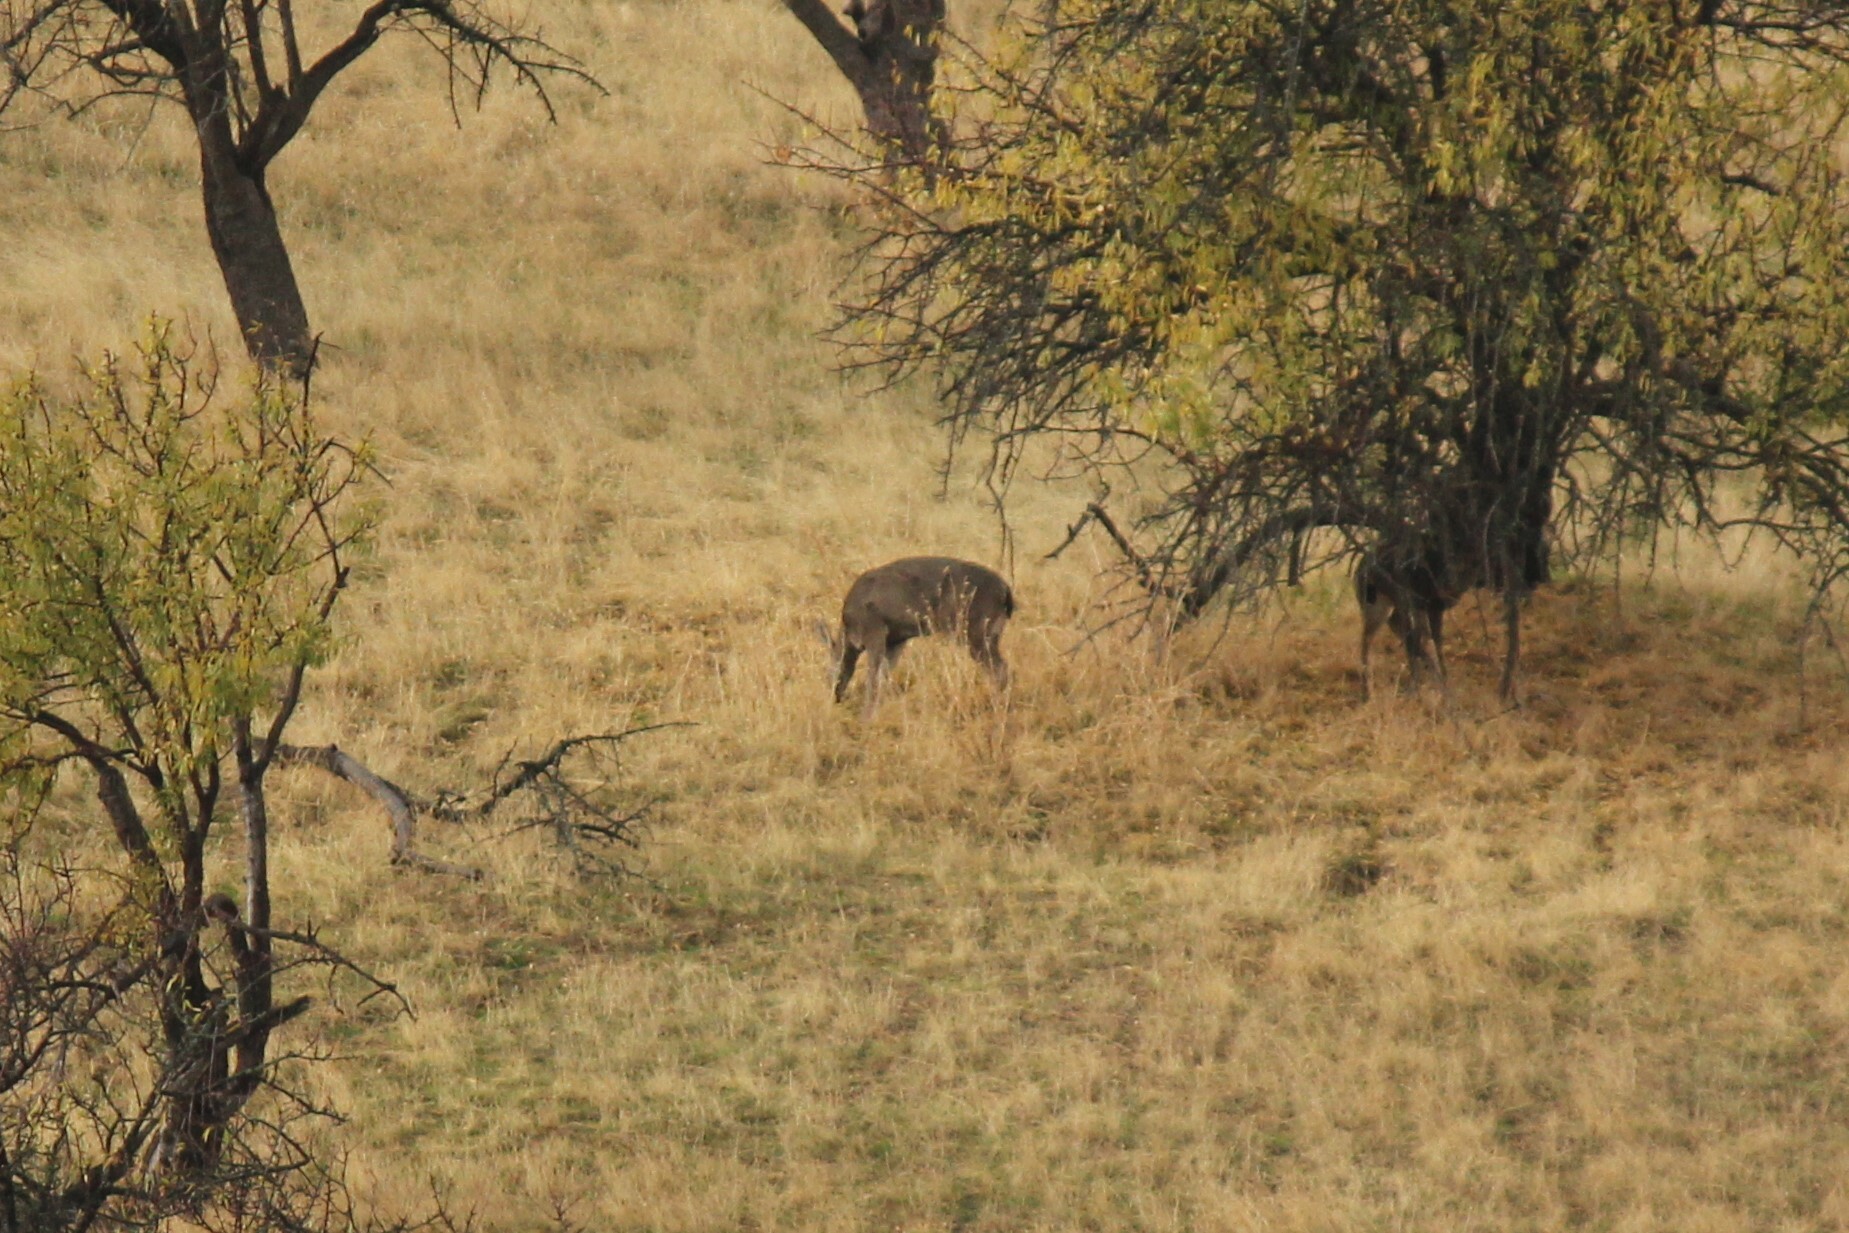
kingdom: Animalia
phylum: Chordata
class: Mammalia
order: Artiodactyla
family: Cervidae
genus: Odocoileus
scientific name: Odocoileus hemionus
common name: Mule deer
